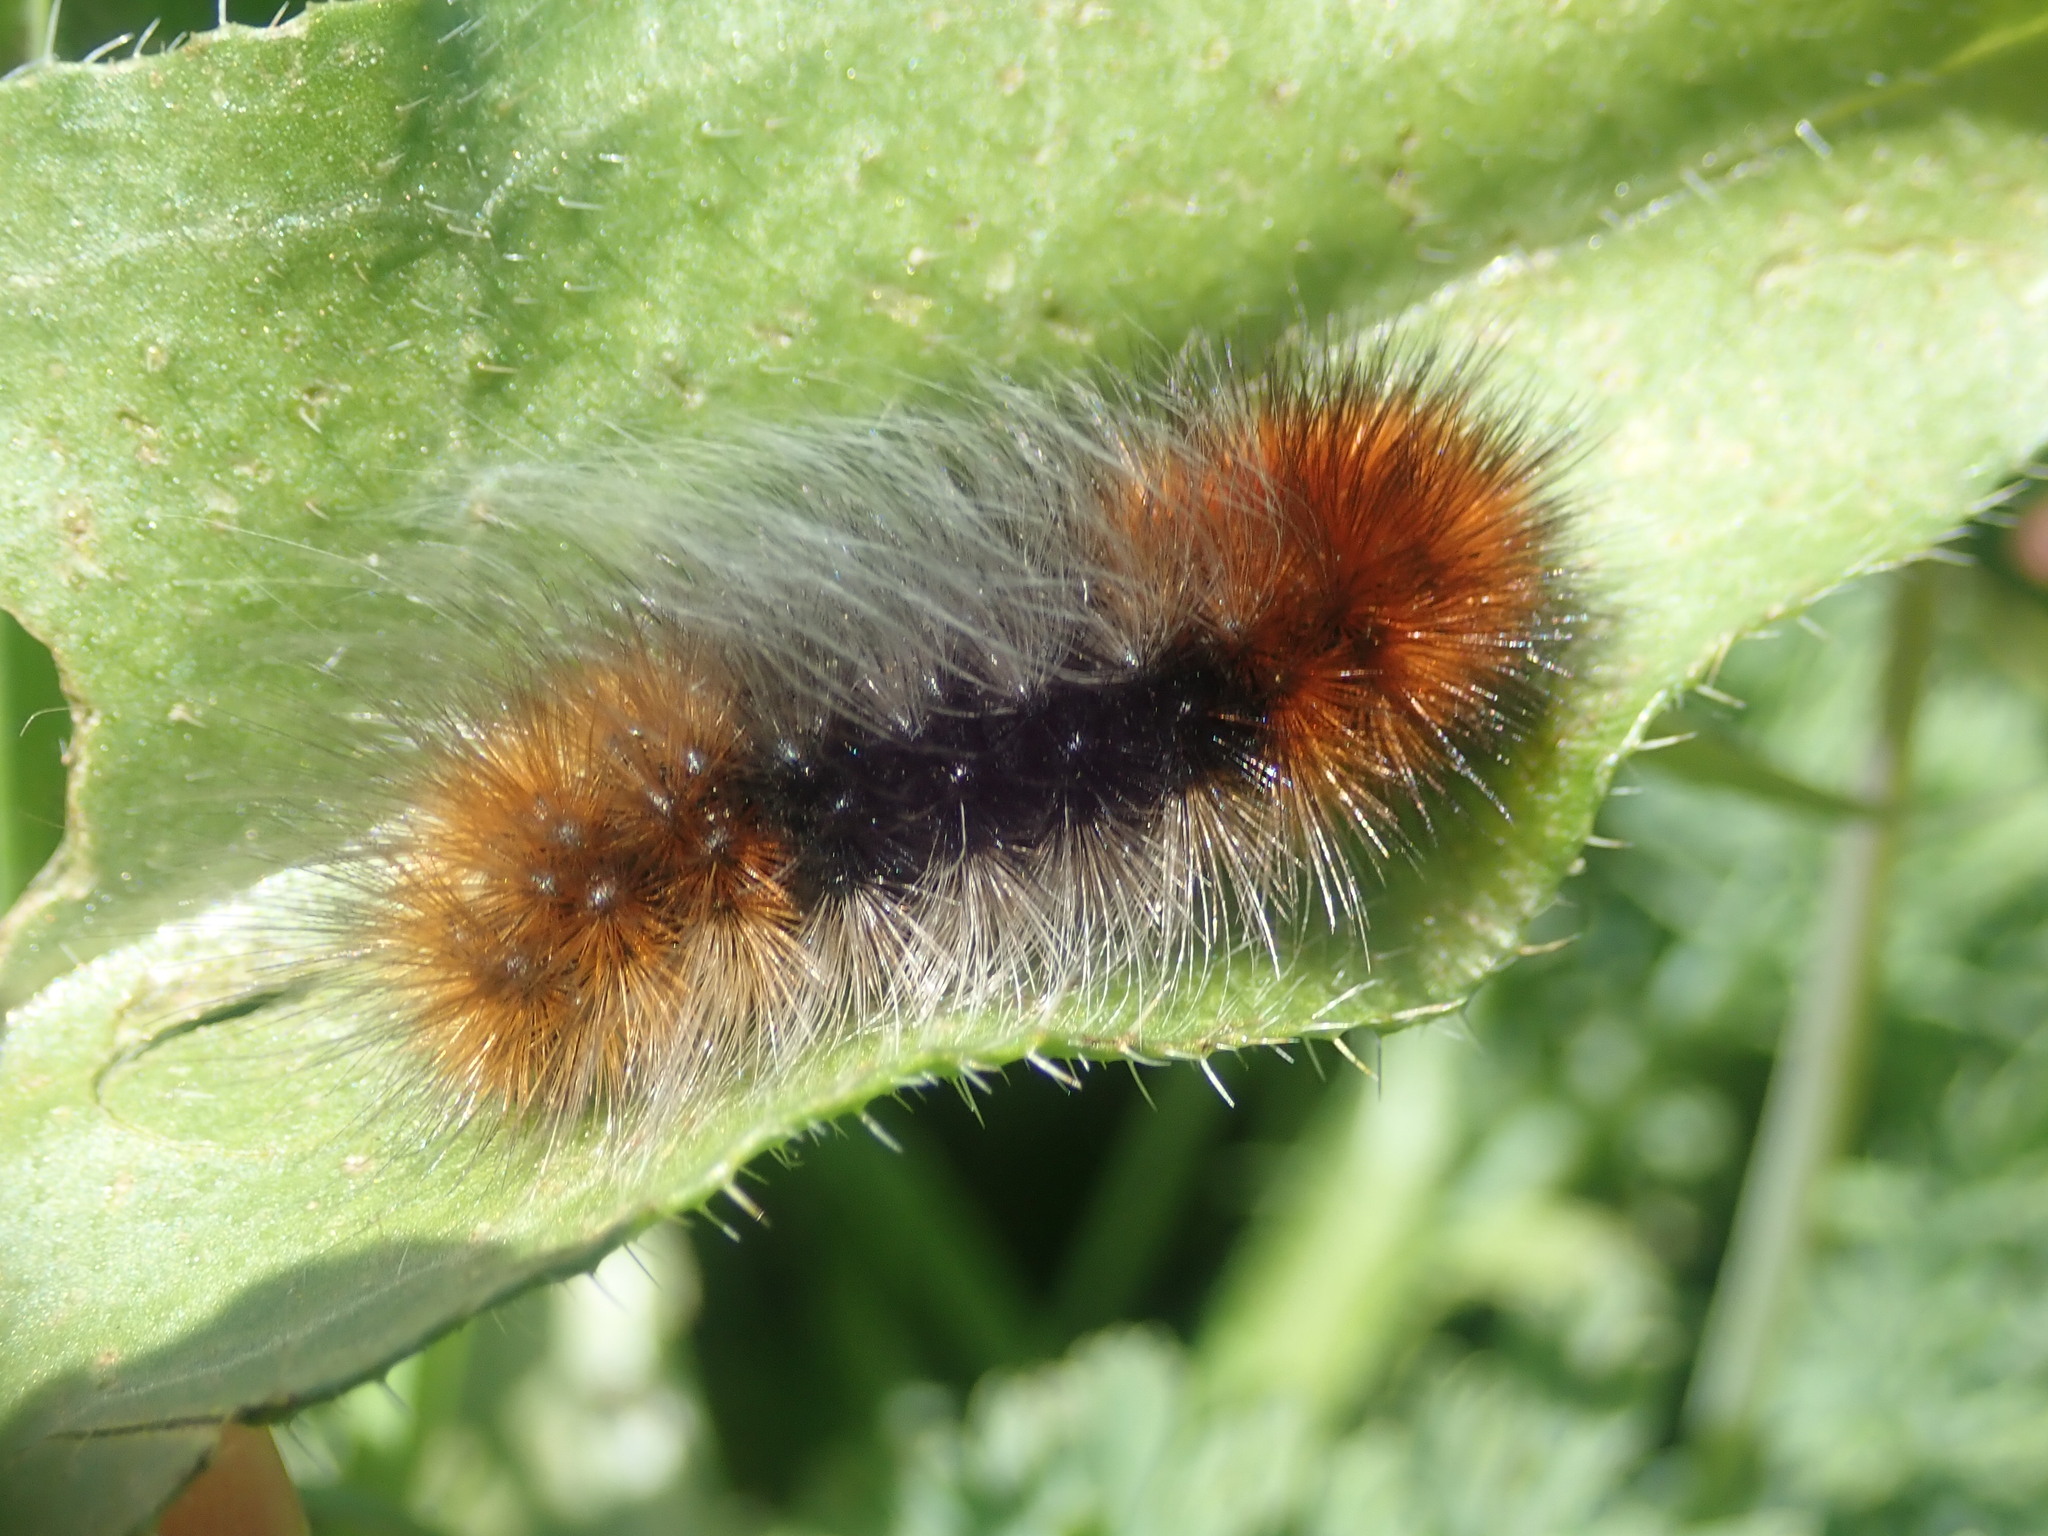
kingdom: Animalia
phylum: Arthropoda
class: Insecta
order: Lepidoptera
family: Erebidae
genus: Arctia
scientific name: Arctia tigrina
